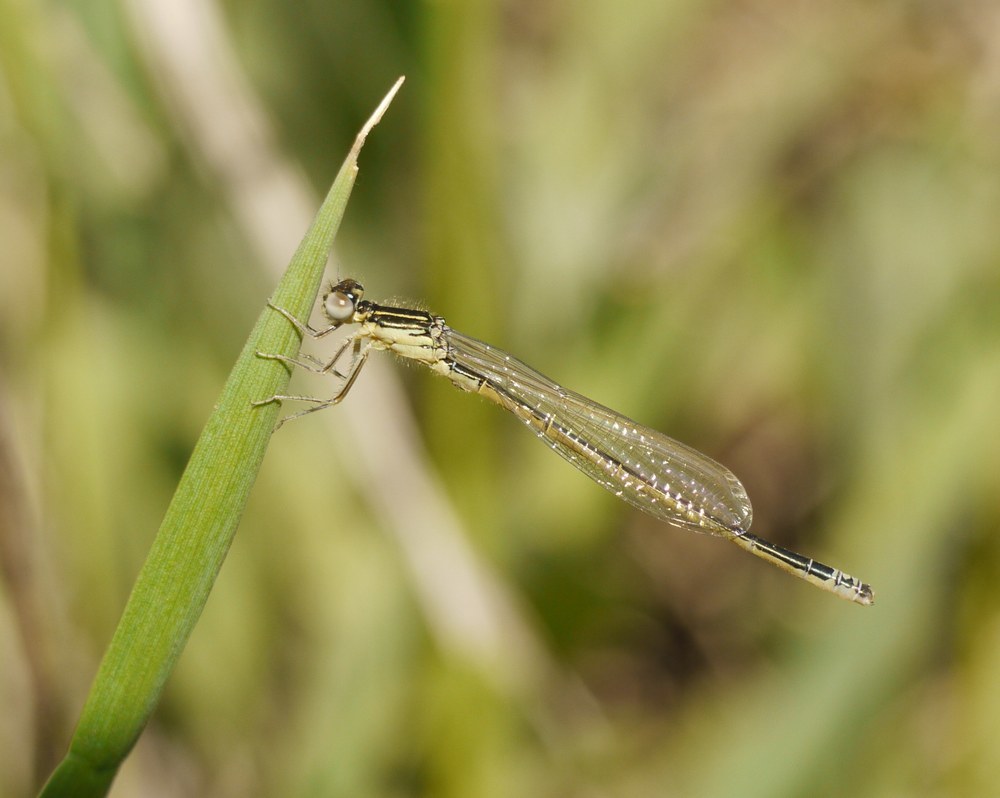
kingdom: Animalia
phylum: Arthropoda
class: Insecta
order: Odonata
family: Coenagrionidae
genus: Ischnura
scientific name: Ischnura pumilio
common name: Scarce blue-tailed damselfly
